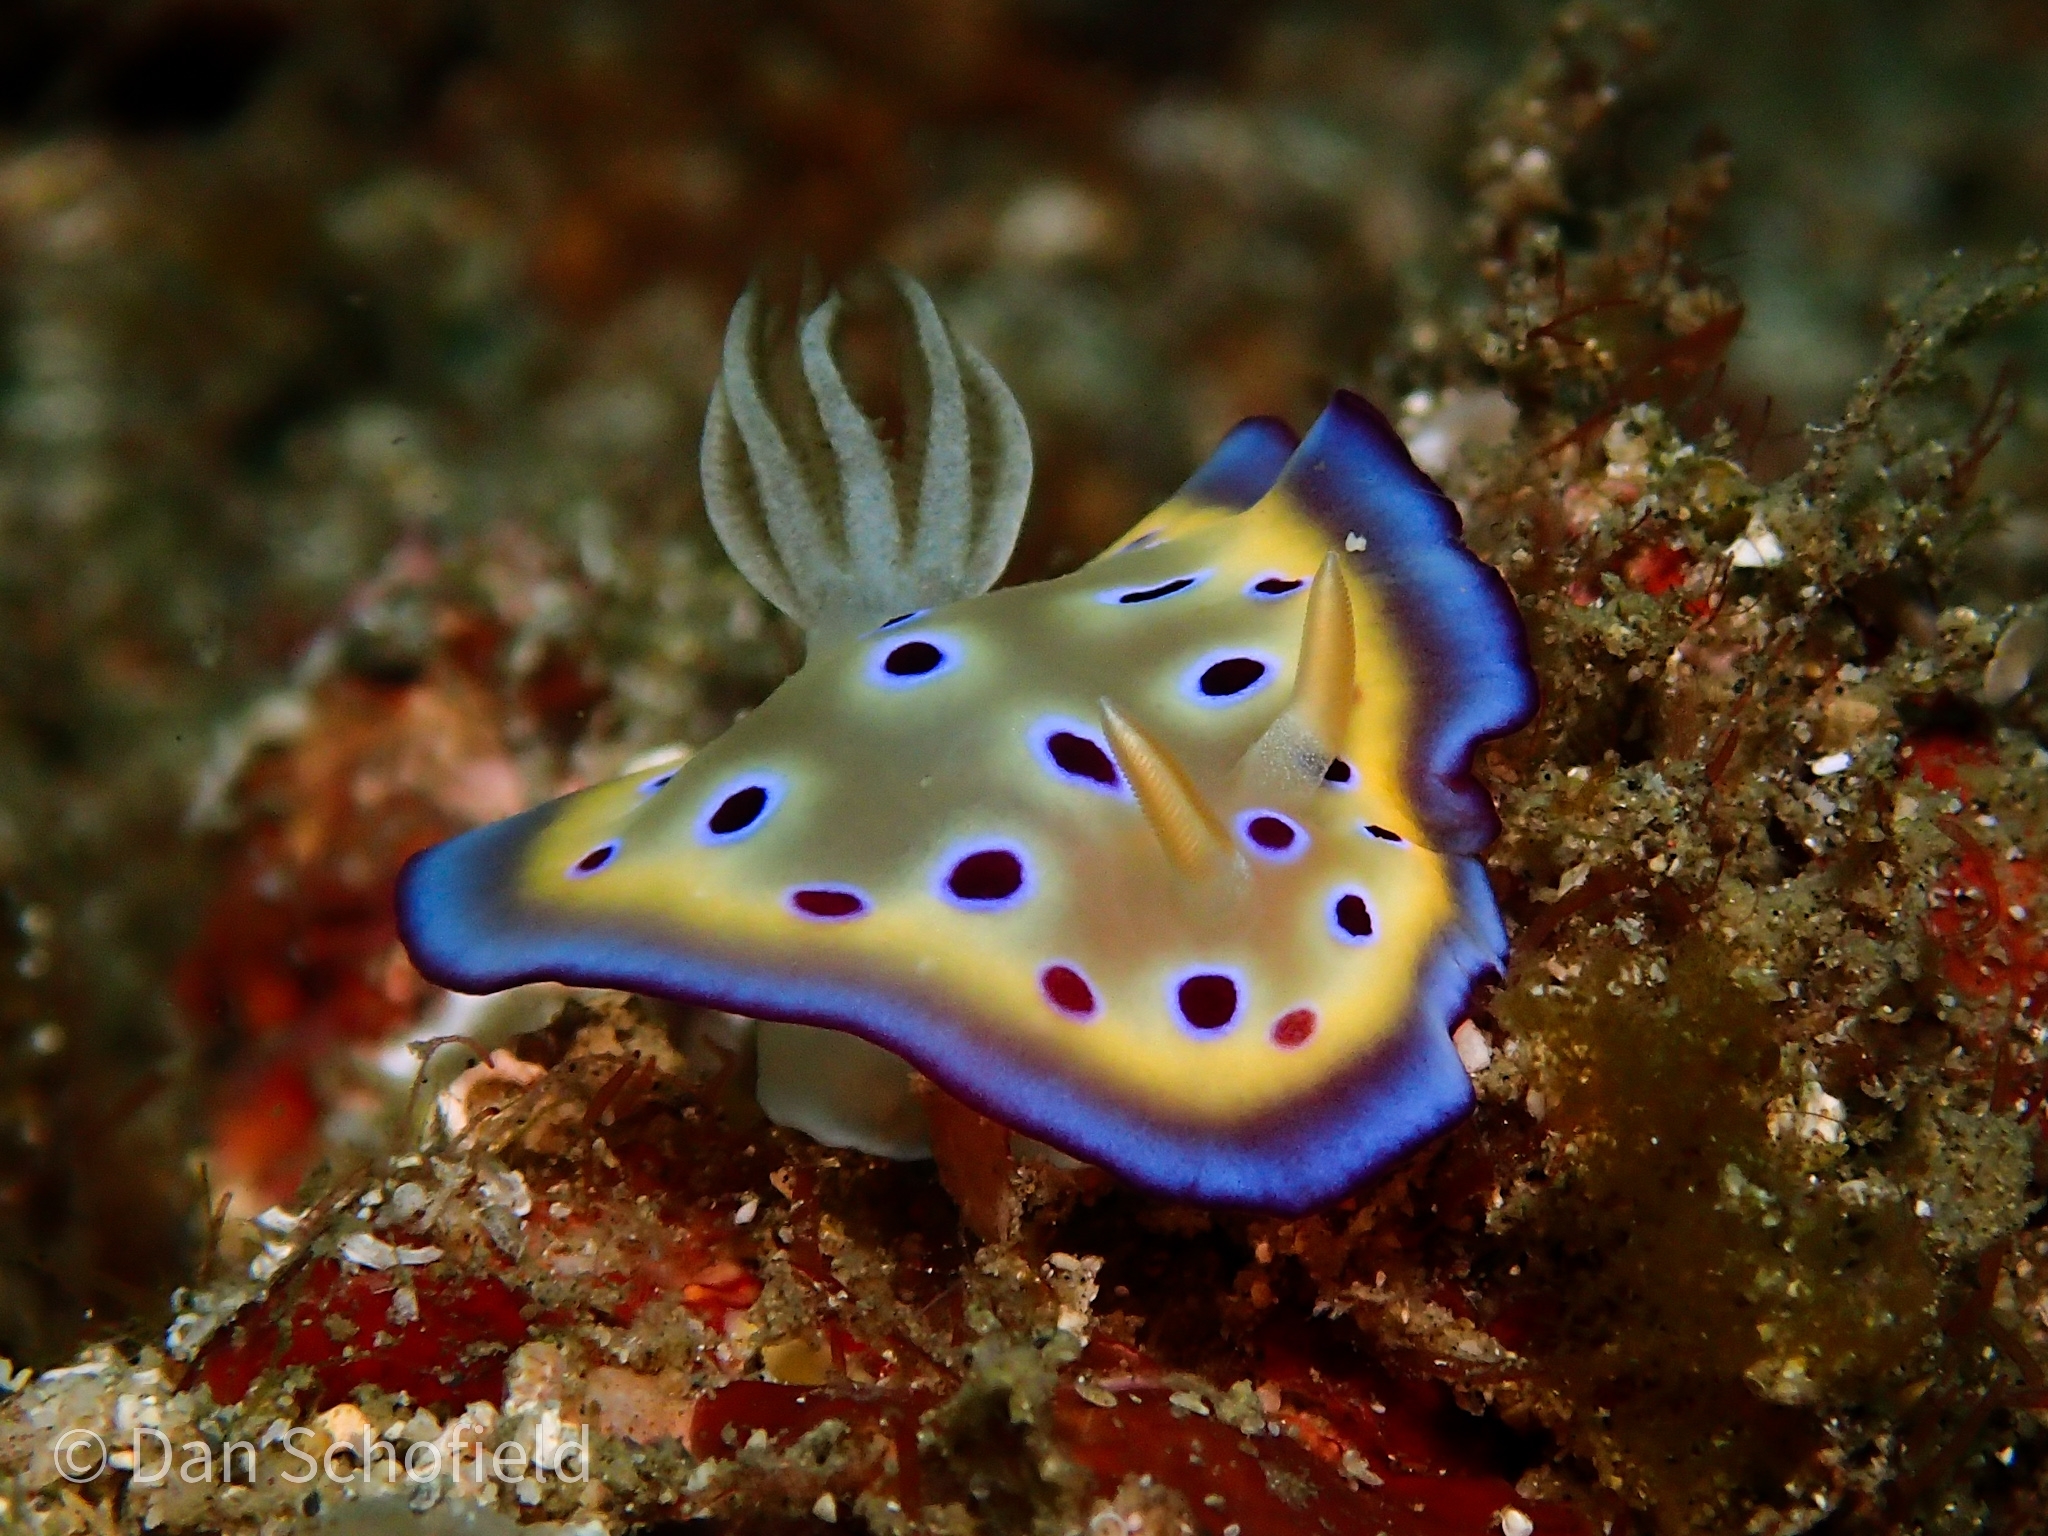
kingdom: Animalia
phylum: Mollusca
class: Gastropoda
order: Nudibranchia
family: Chromodorididae
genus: Goniobranchus
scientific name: Goniobranchus kuniei
